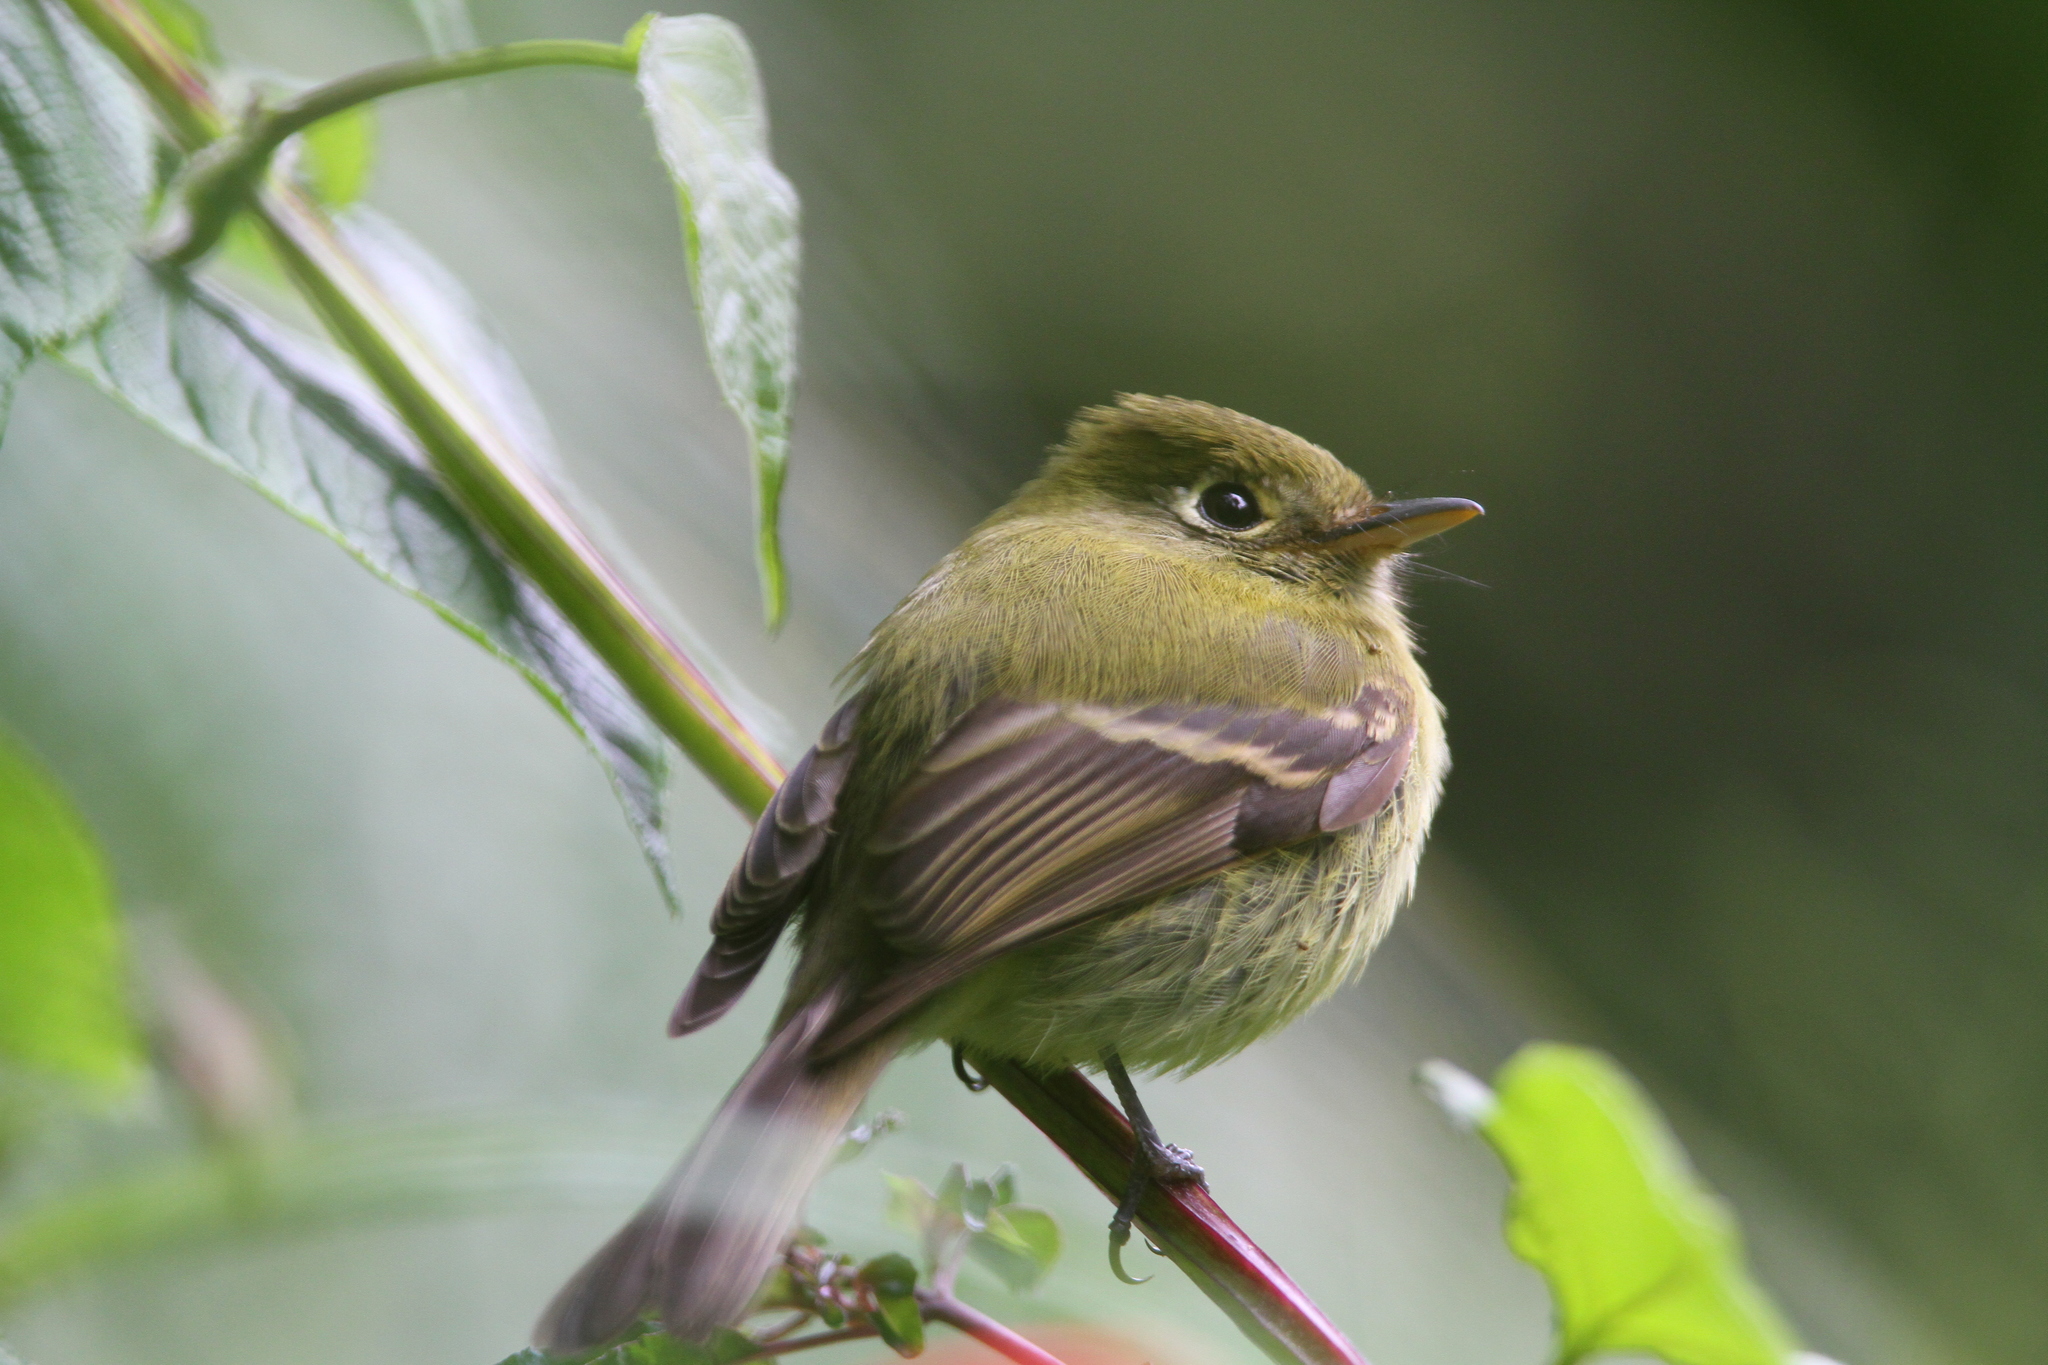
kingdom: Animalia
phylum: Chordata
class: Aves
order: Passeriformes
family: Tyrannidae
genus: Empidonax
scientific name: Empidonax flavescens
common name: Yellowish flycatcher
